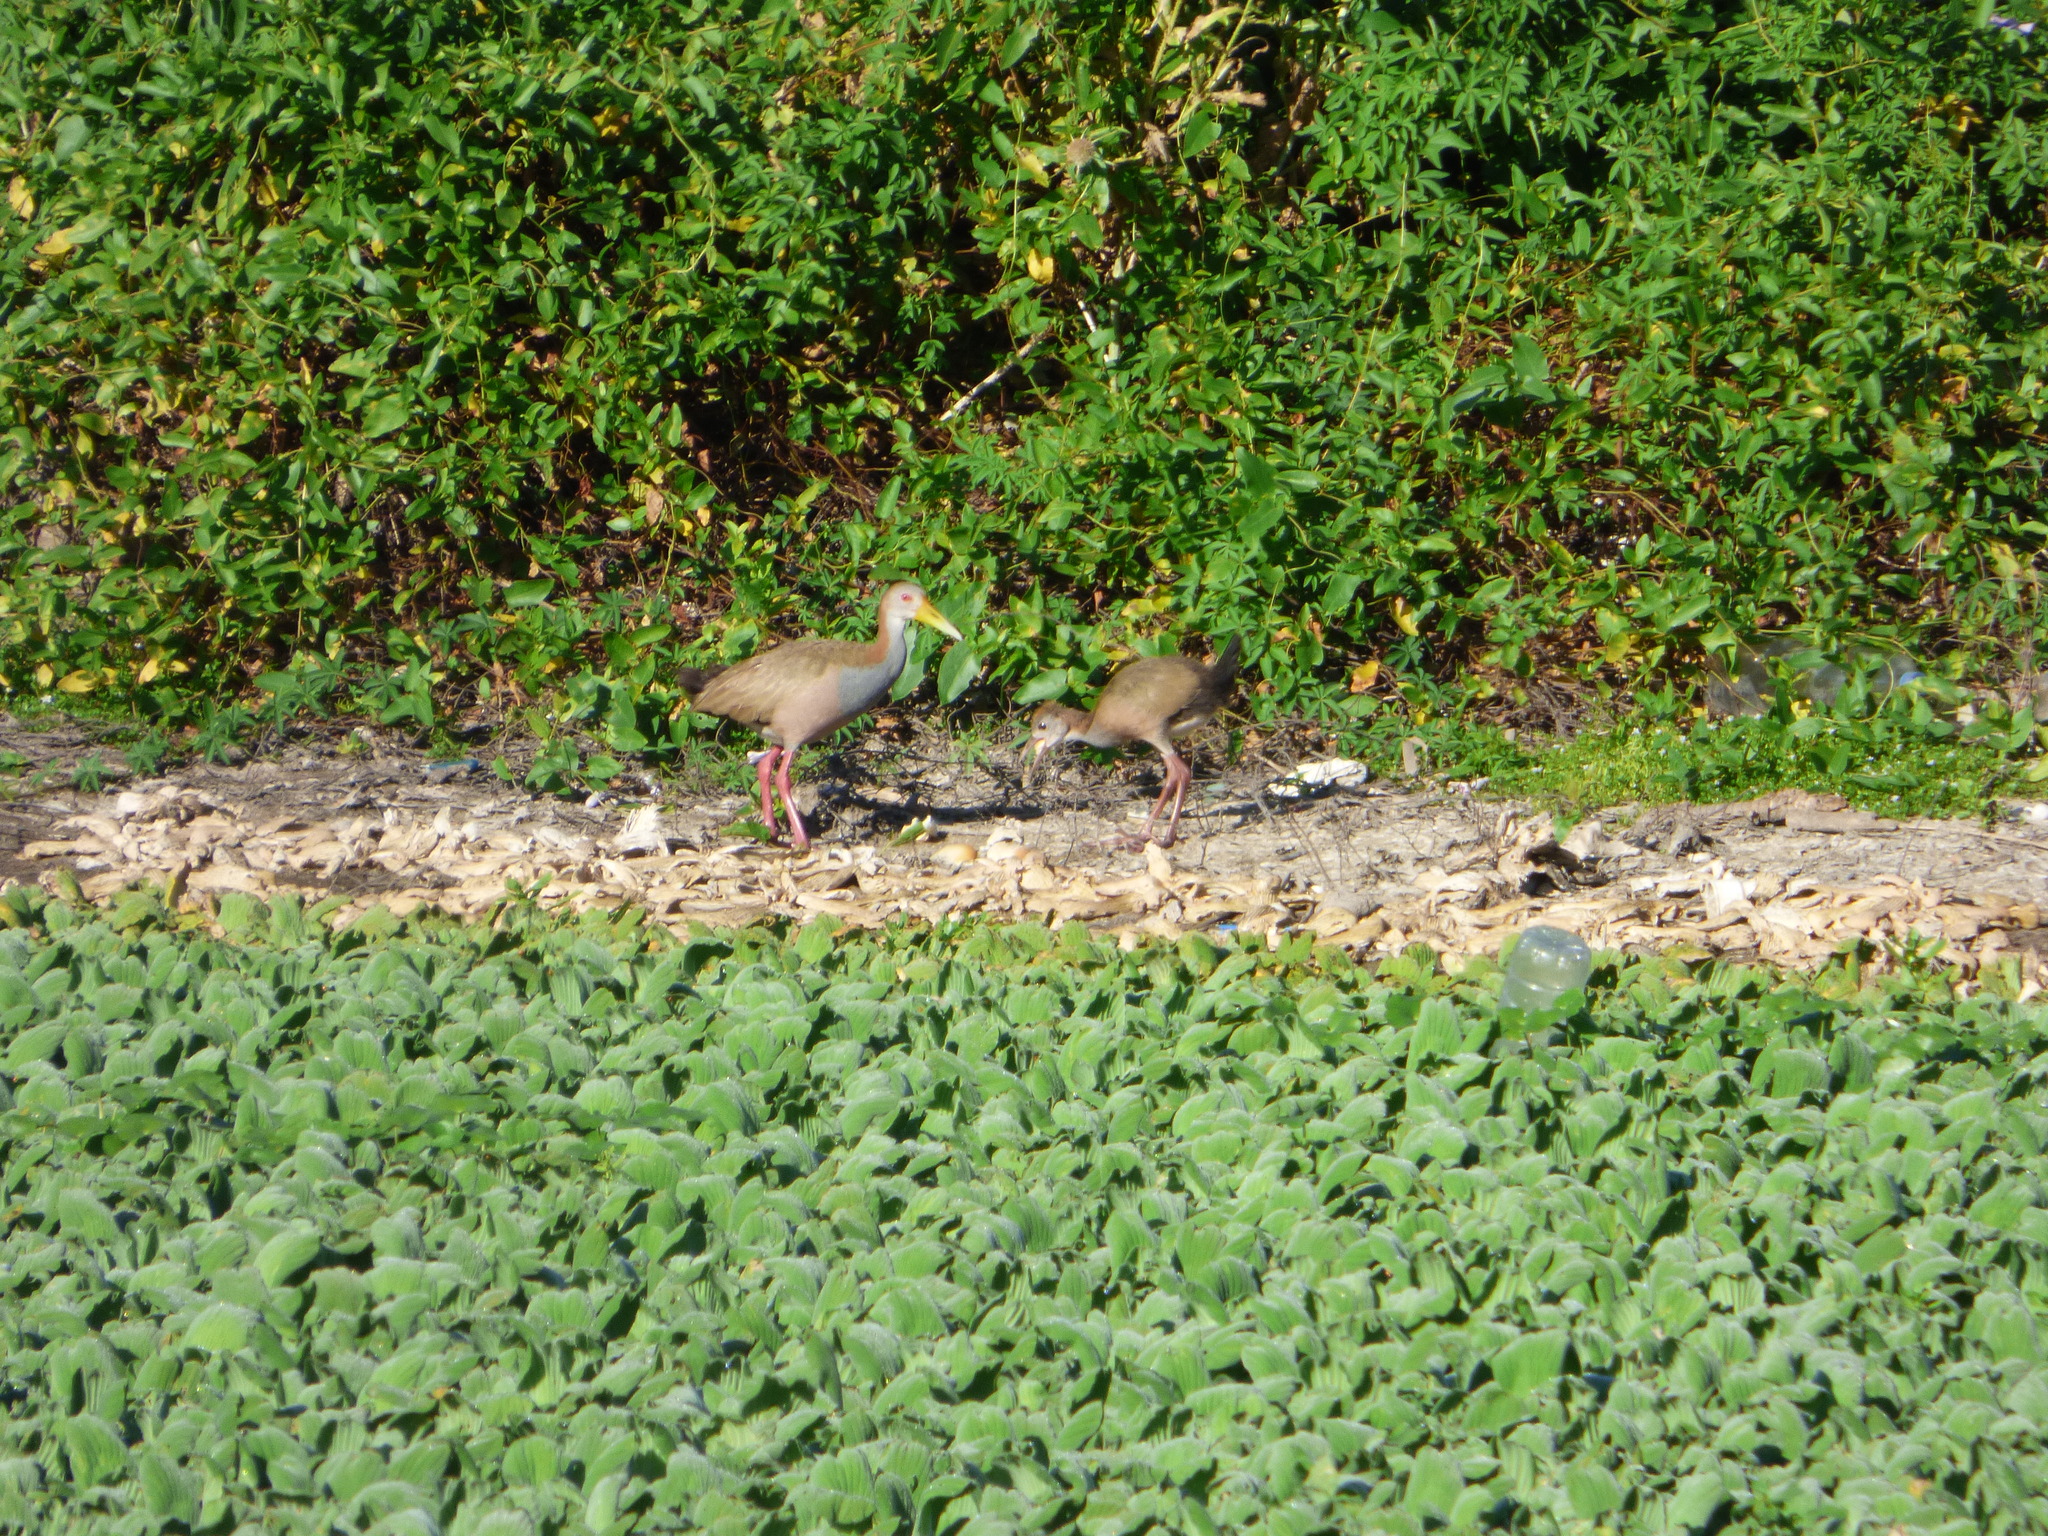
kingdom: Animalia
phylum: Chordata
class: Aves
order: Gruiformes
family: Rallidae
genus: Aramides
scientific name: Aramides ypecaha
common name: Giant wood rail
